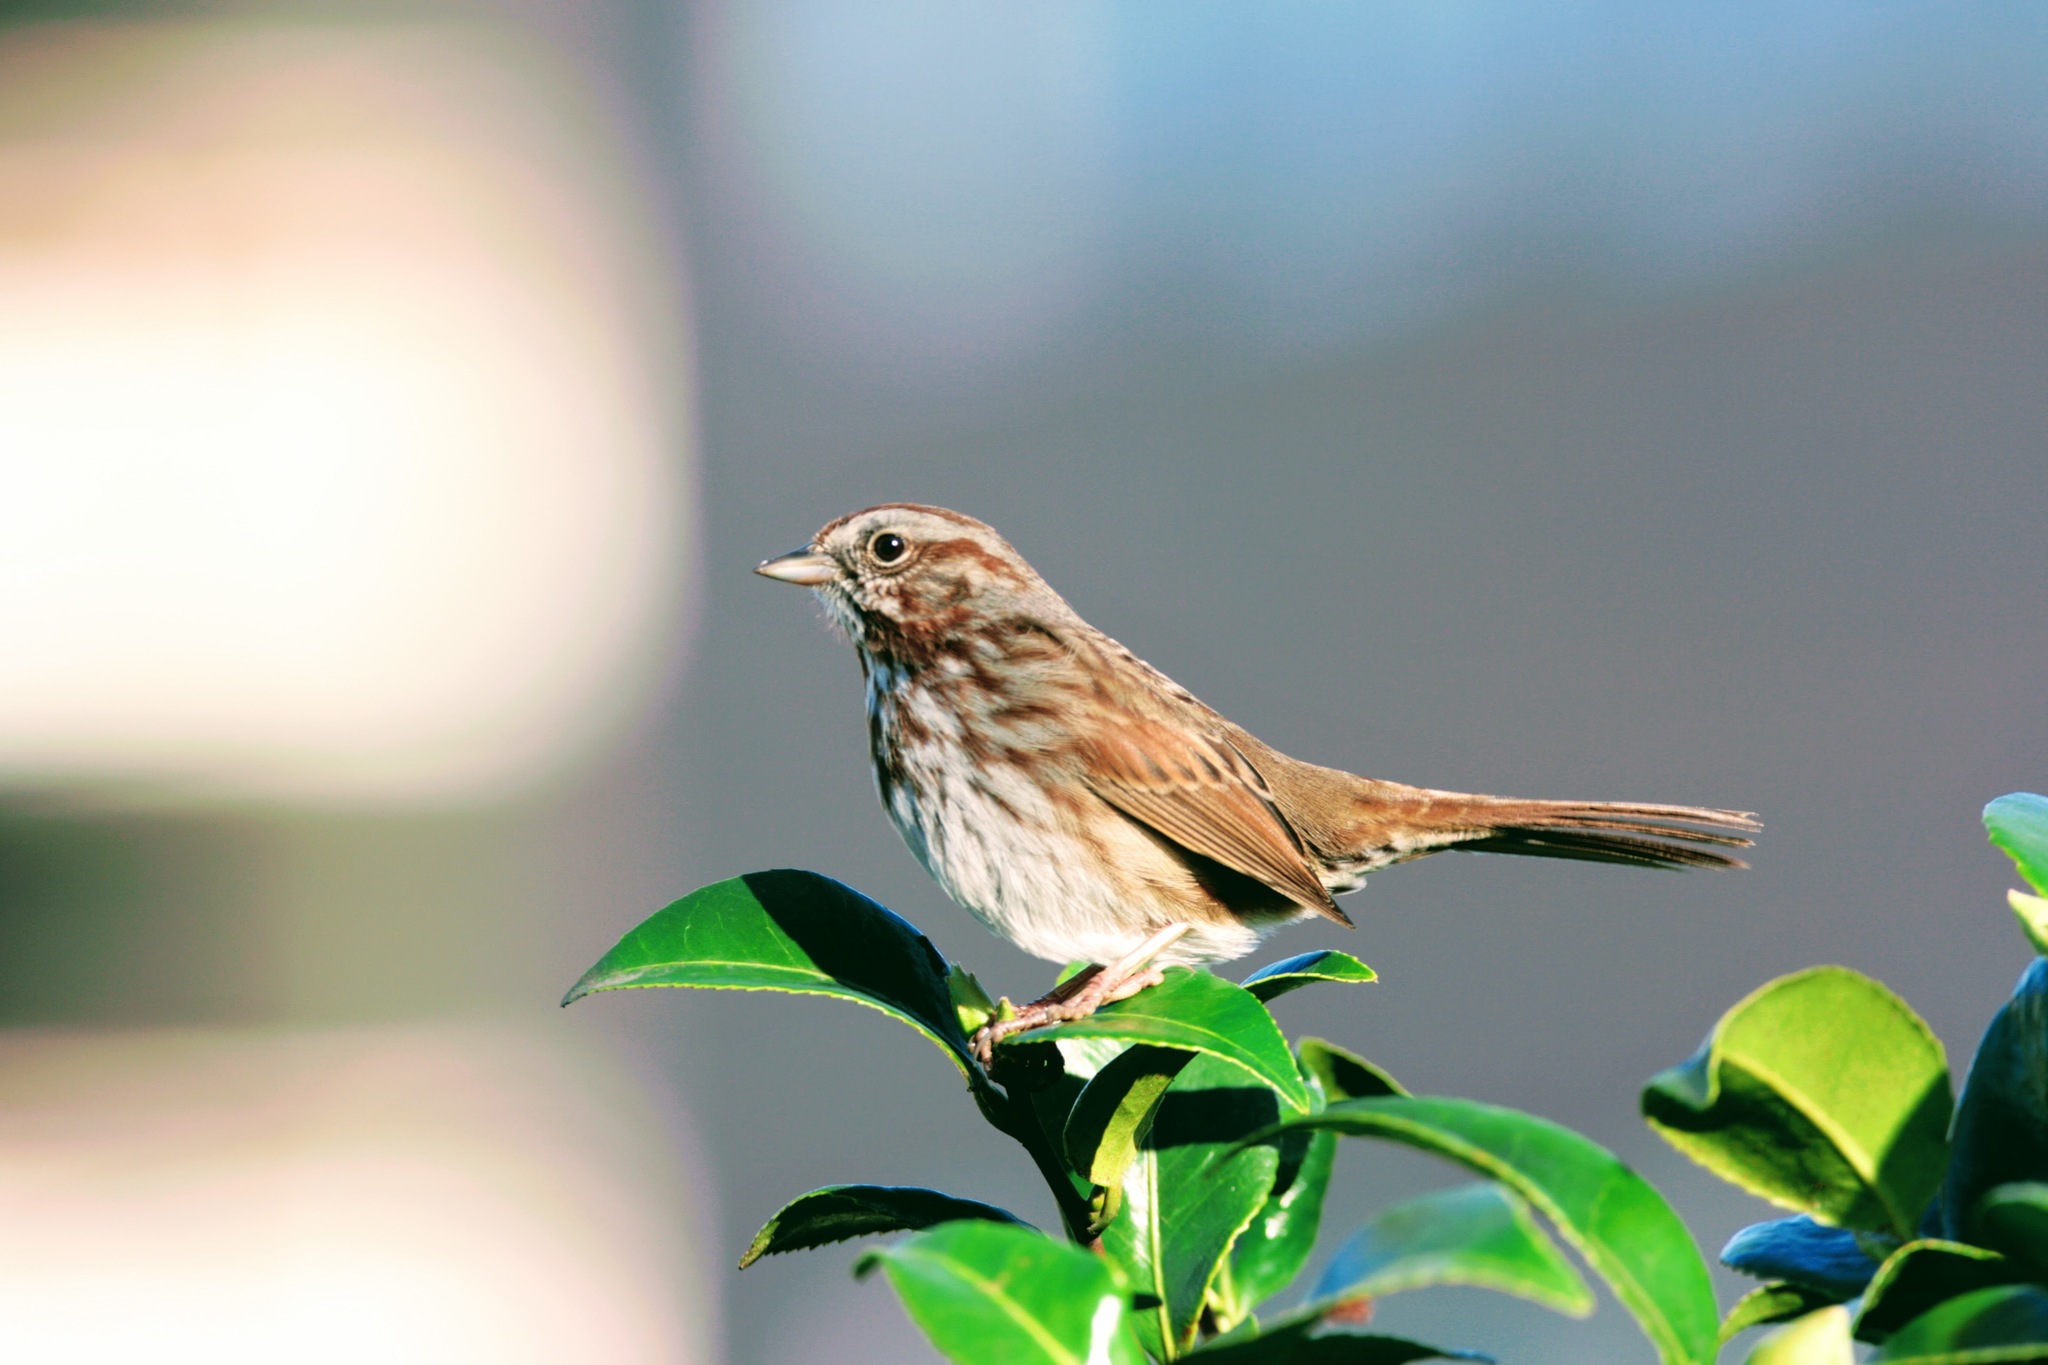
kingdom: Animalia
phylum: Chordata
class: Aves
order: Passeriformes
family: Passerellidae
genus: Melospiza
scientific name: Melospiza melodia
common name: Song sparrow
